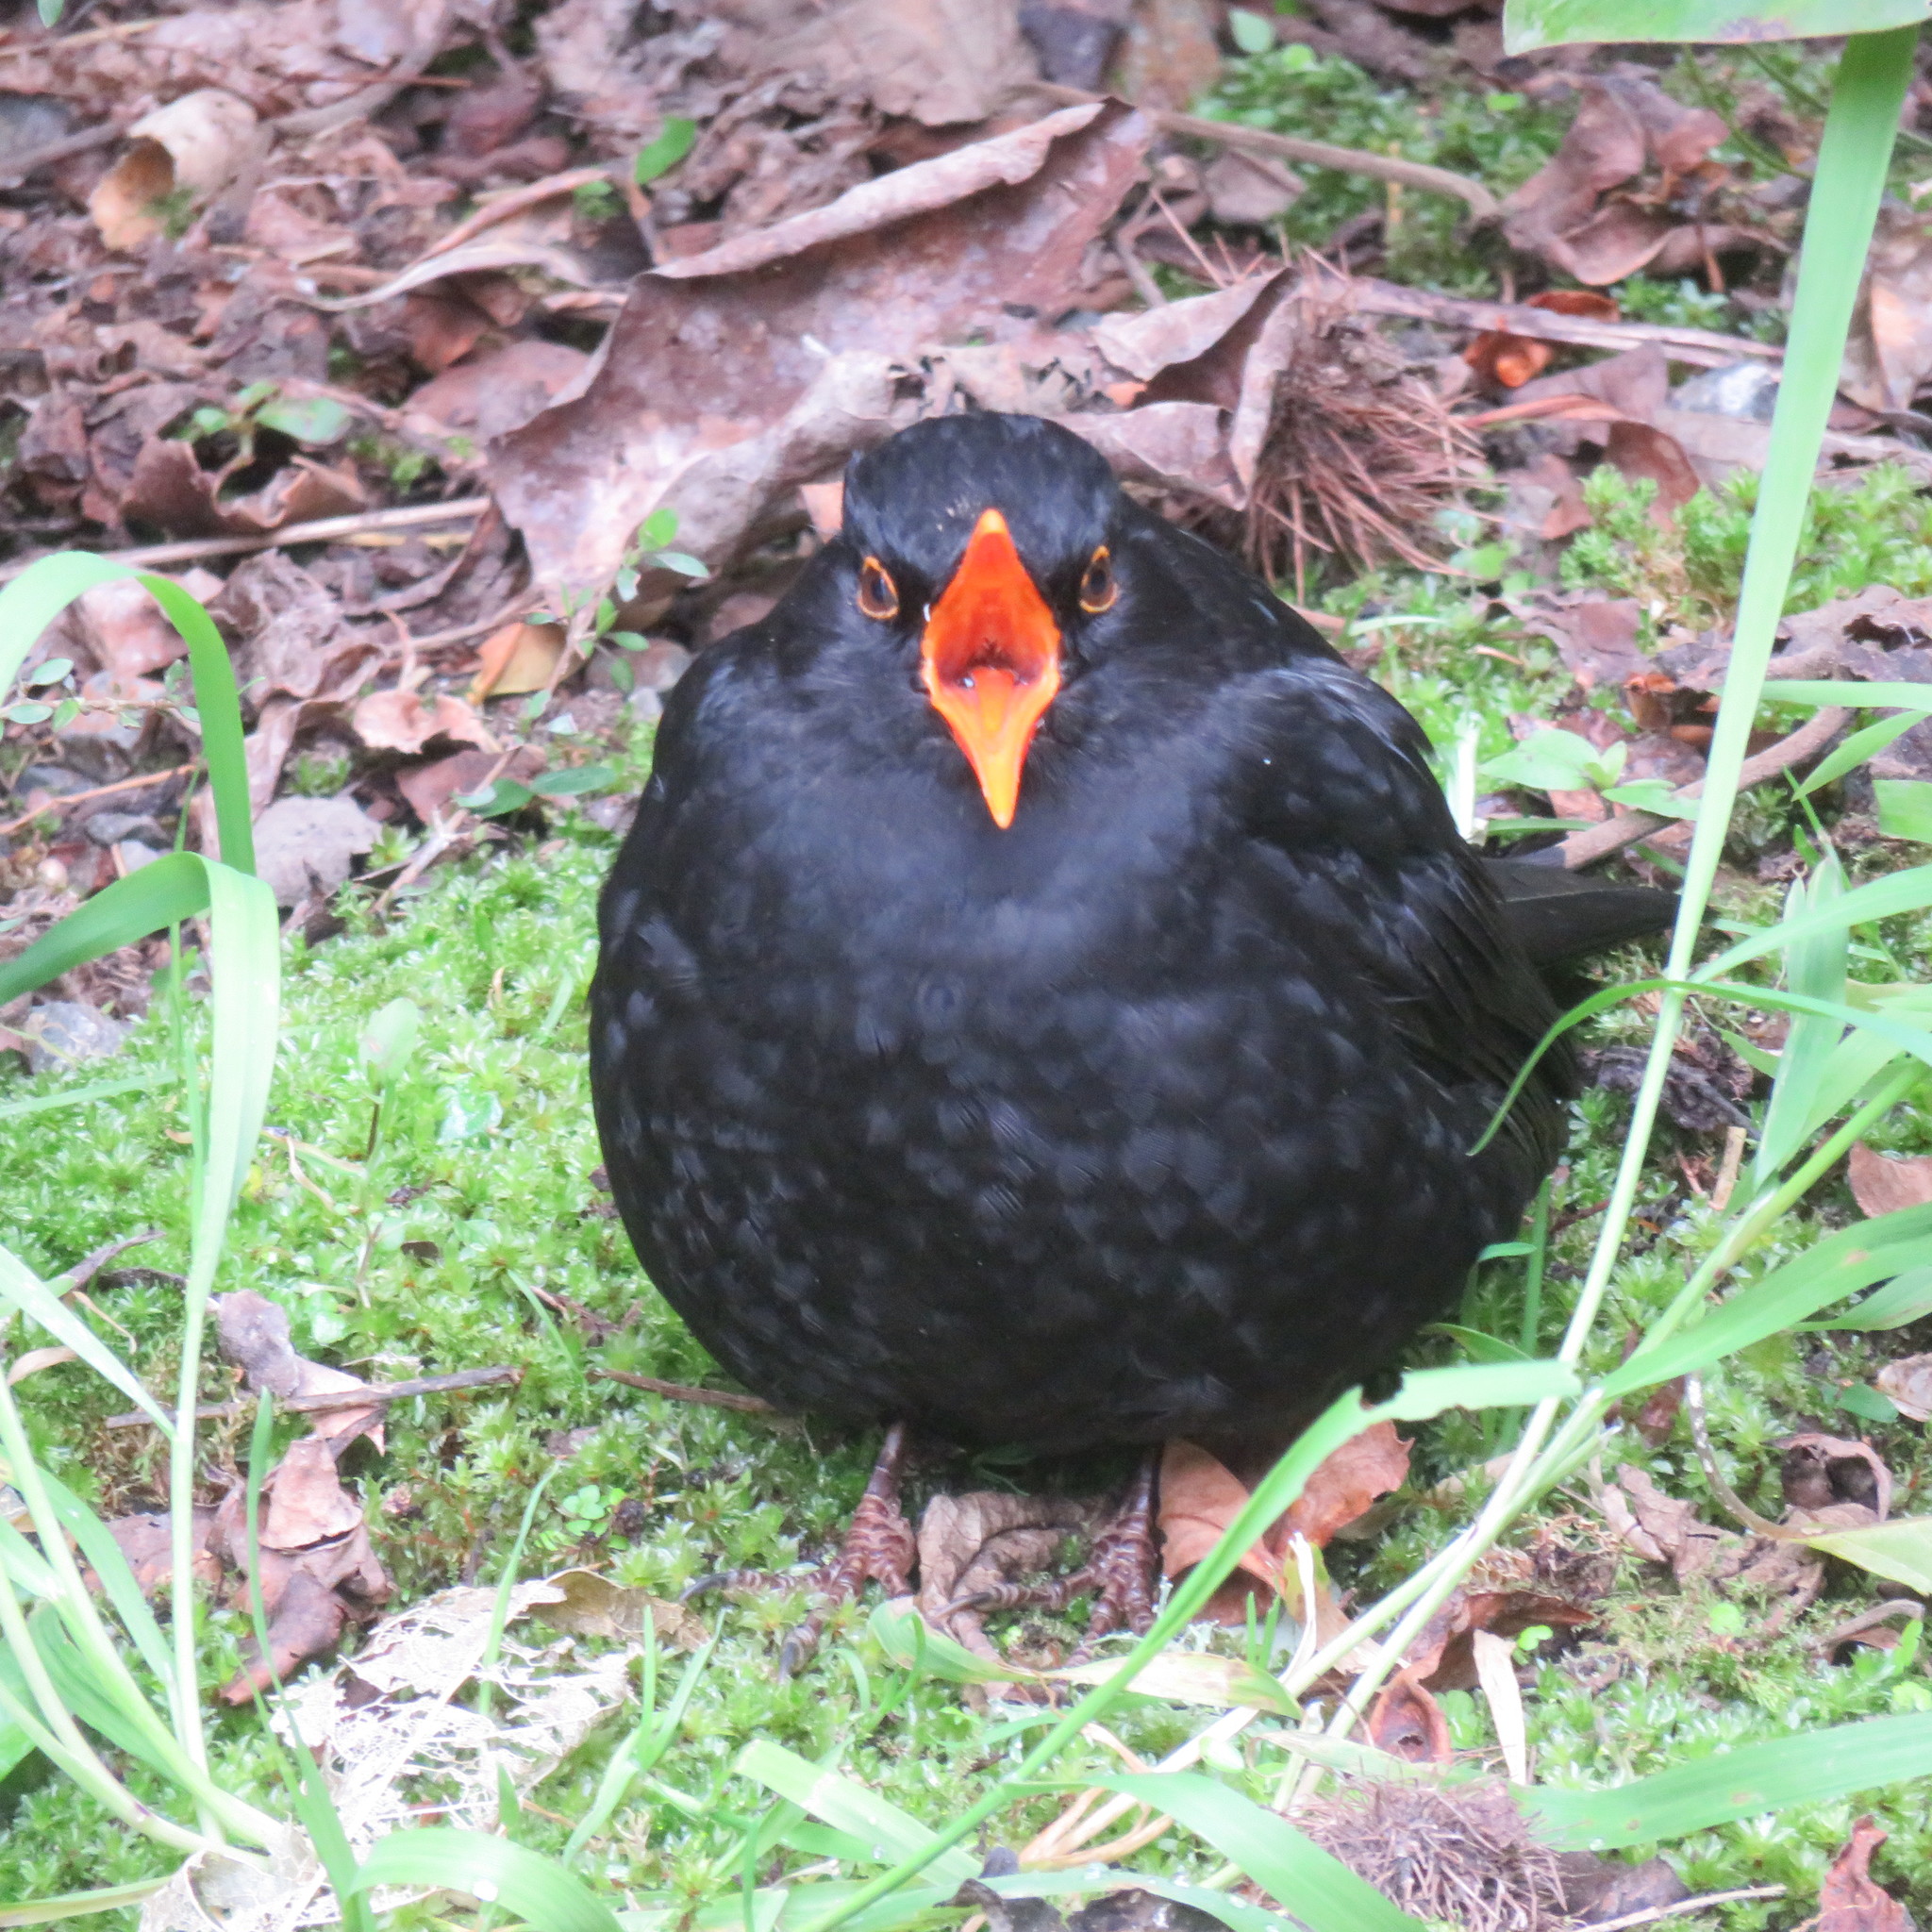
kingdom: Animalia
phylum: Chordata
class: Aves
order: Passeriformes
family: Turdidae
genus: Turdus
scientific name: Turdus merula
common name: Common blackbird
